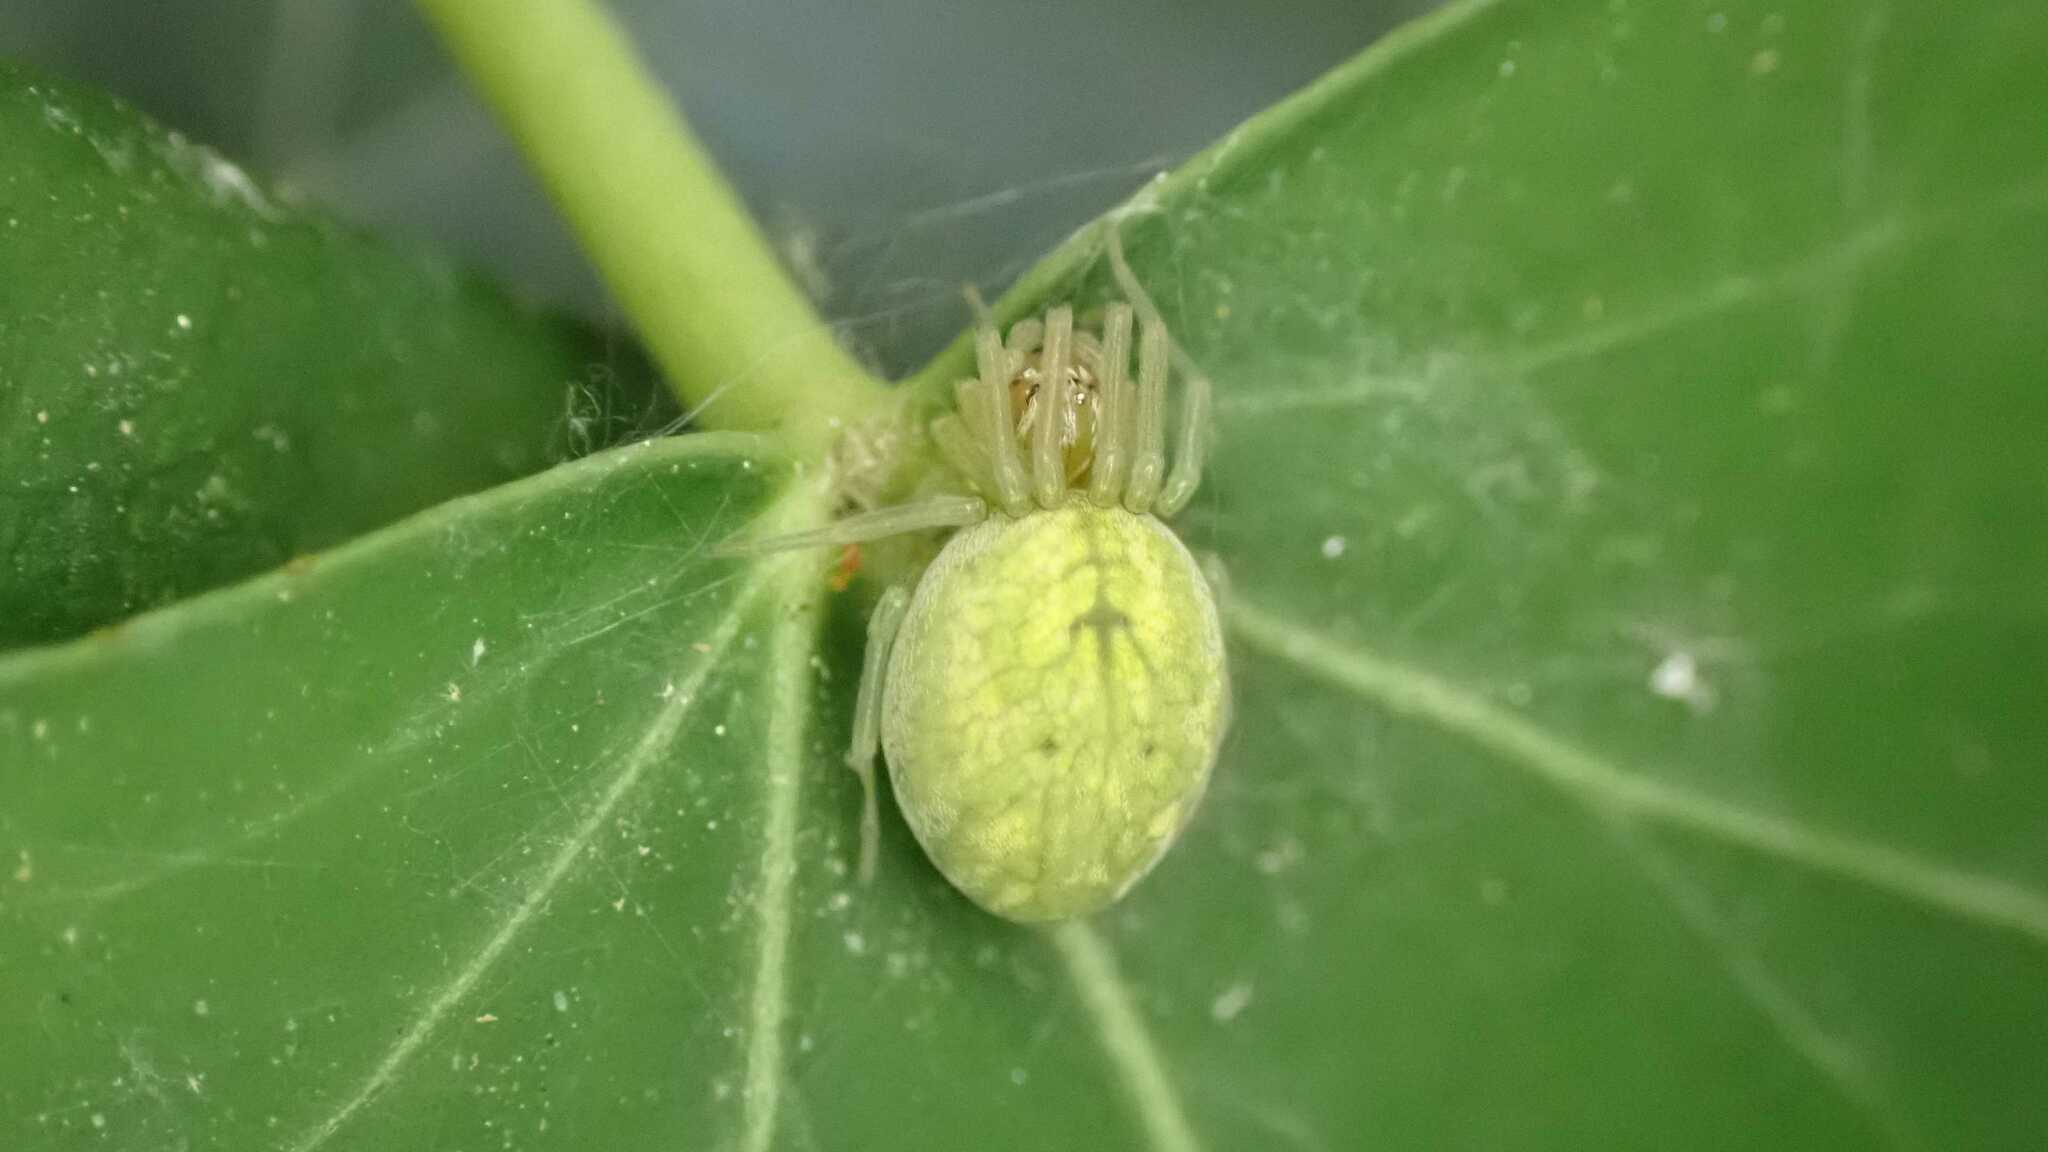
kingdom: Animalia
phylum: Arthropoda
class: Arachnida
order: Araneae
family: Dictynidae
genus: Nigma
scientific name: Nigma walckenaeri
